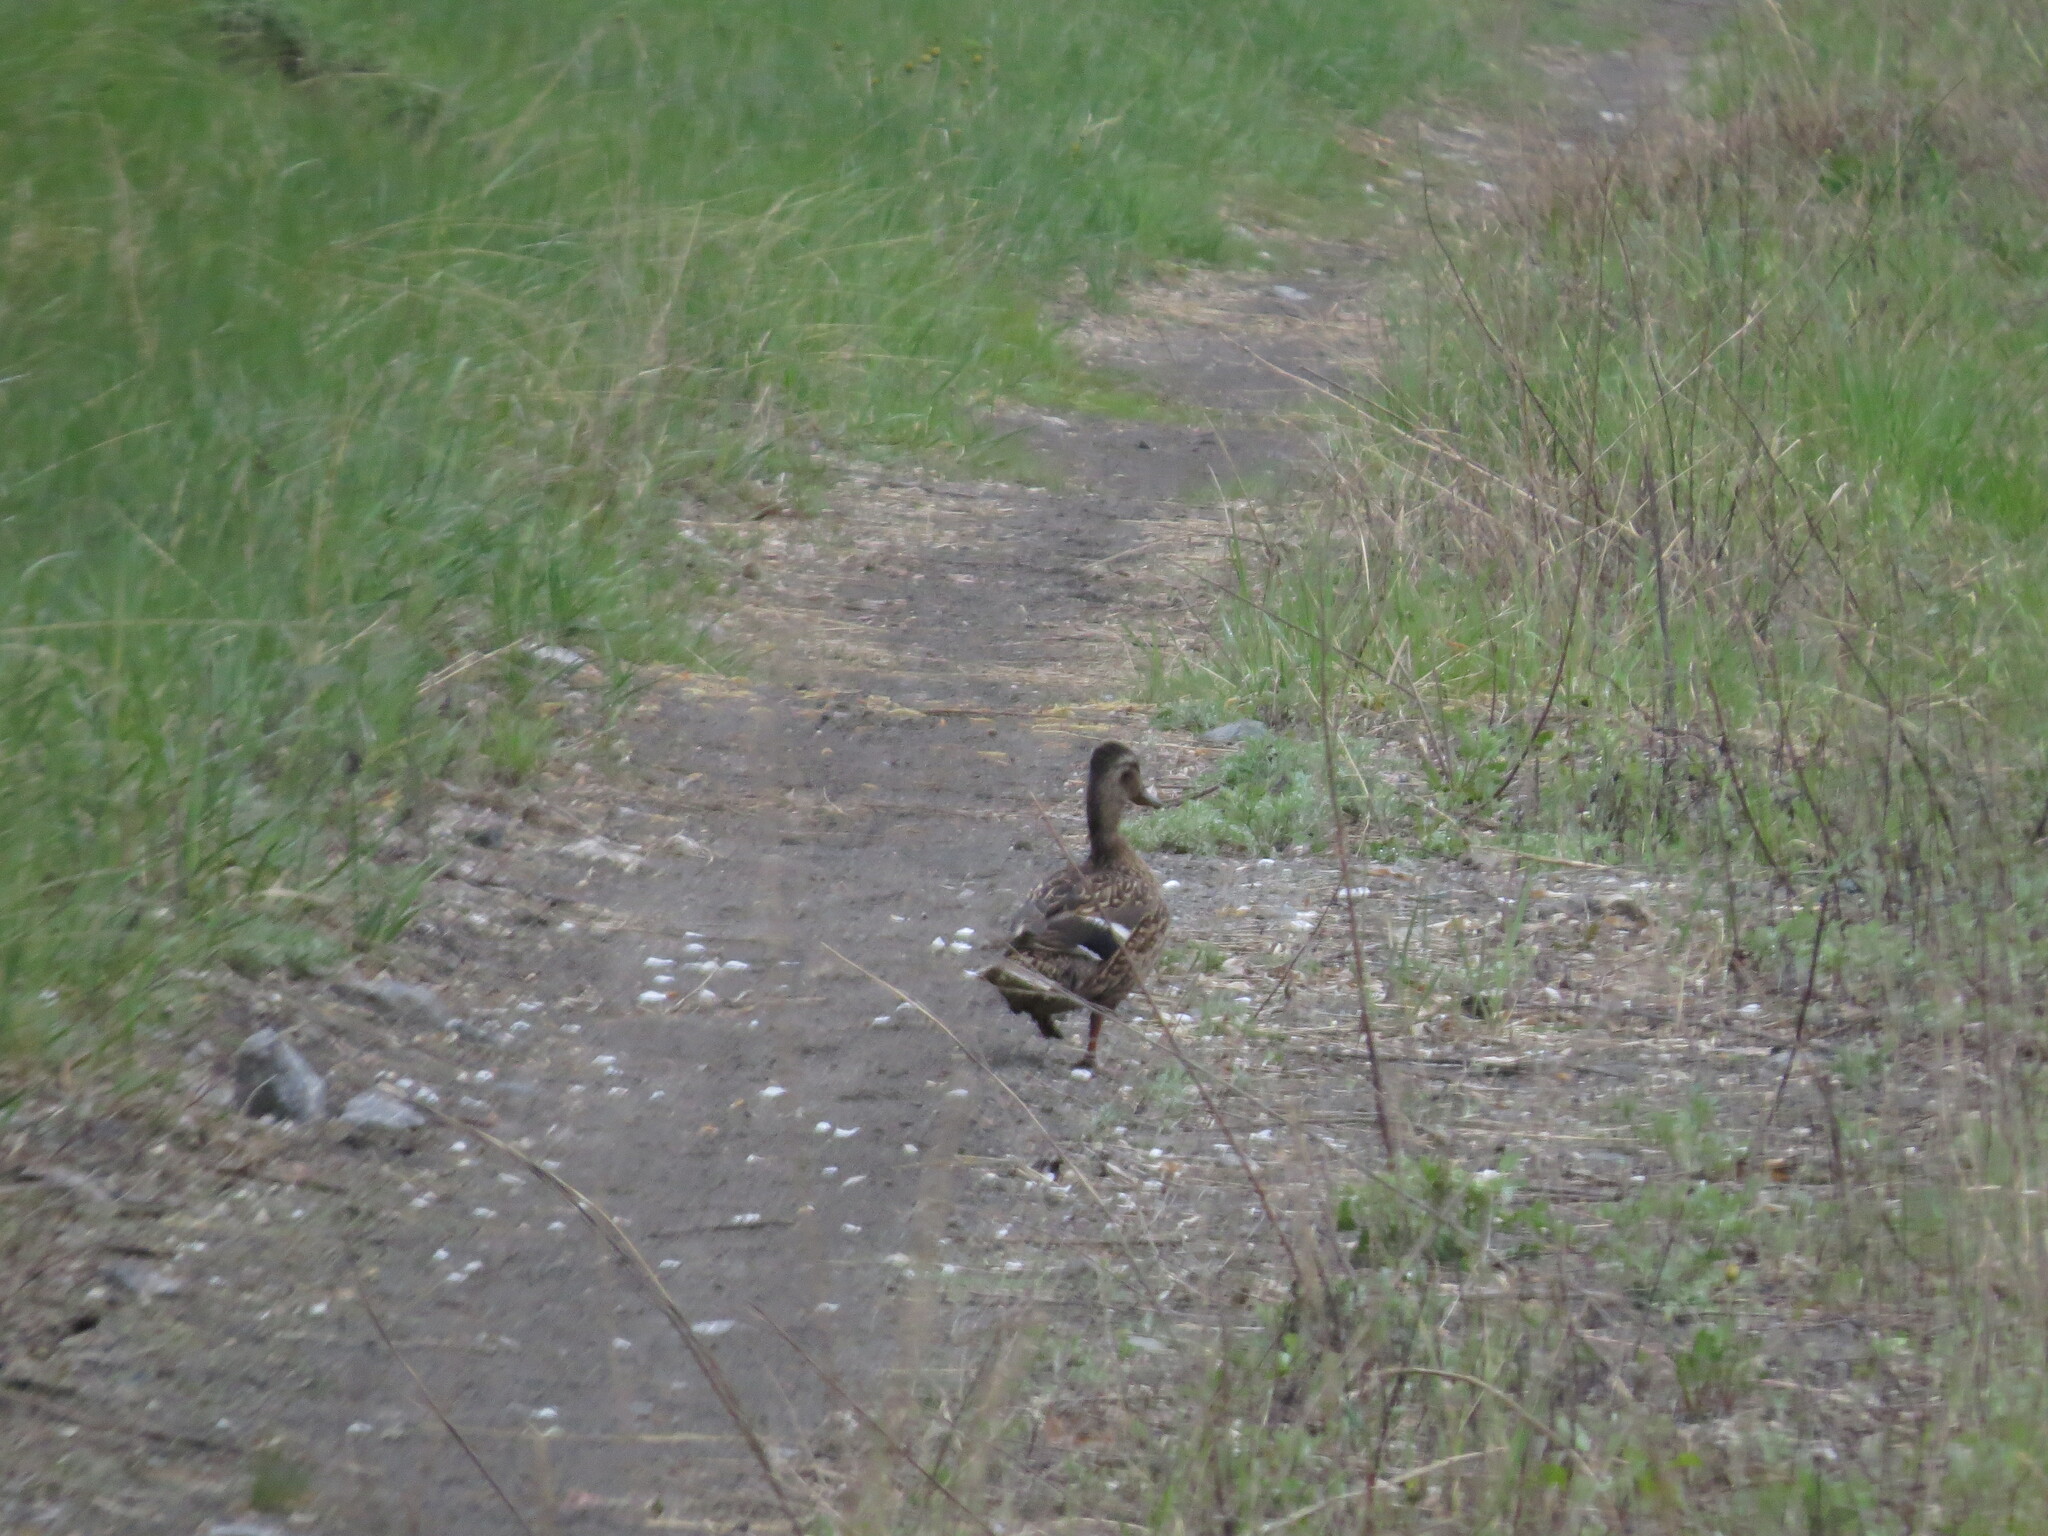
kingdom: Animalia
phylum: Chordata
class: Aves
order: Anseriformes
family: Anatidae
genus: Anas
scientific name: Anas platyrhynchos
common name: Mallard
